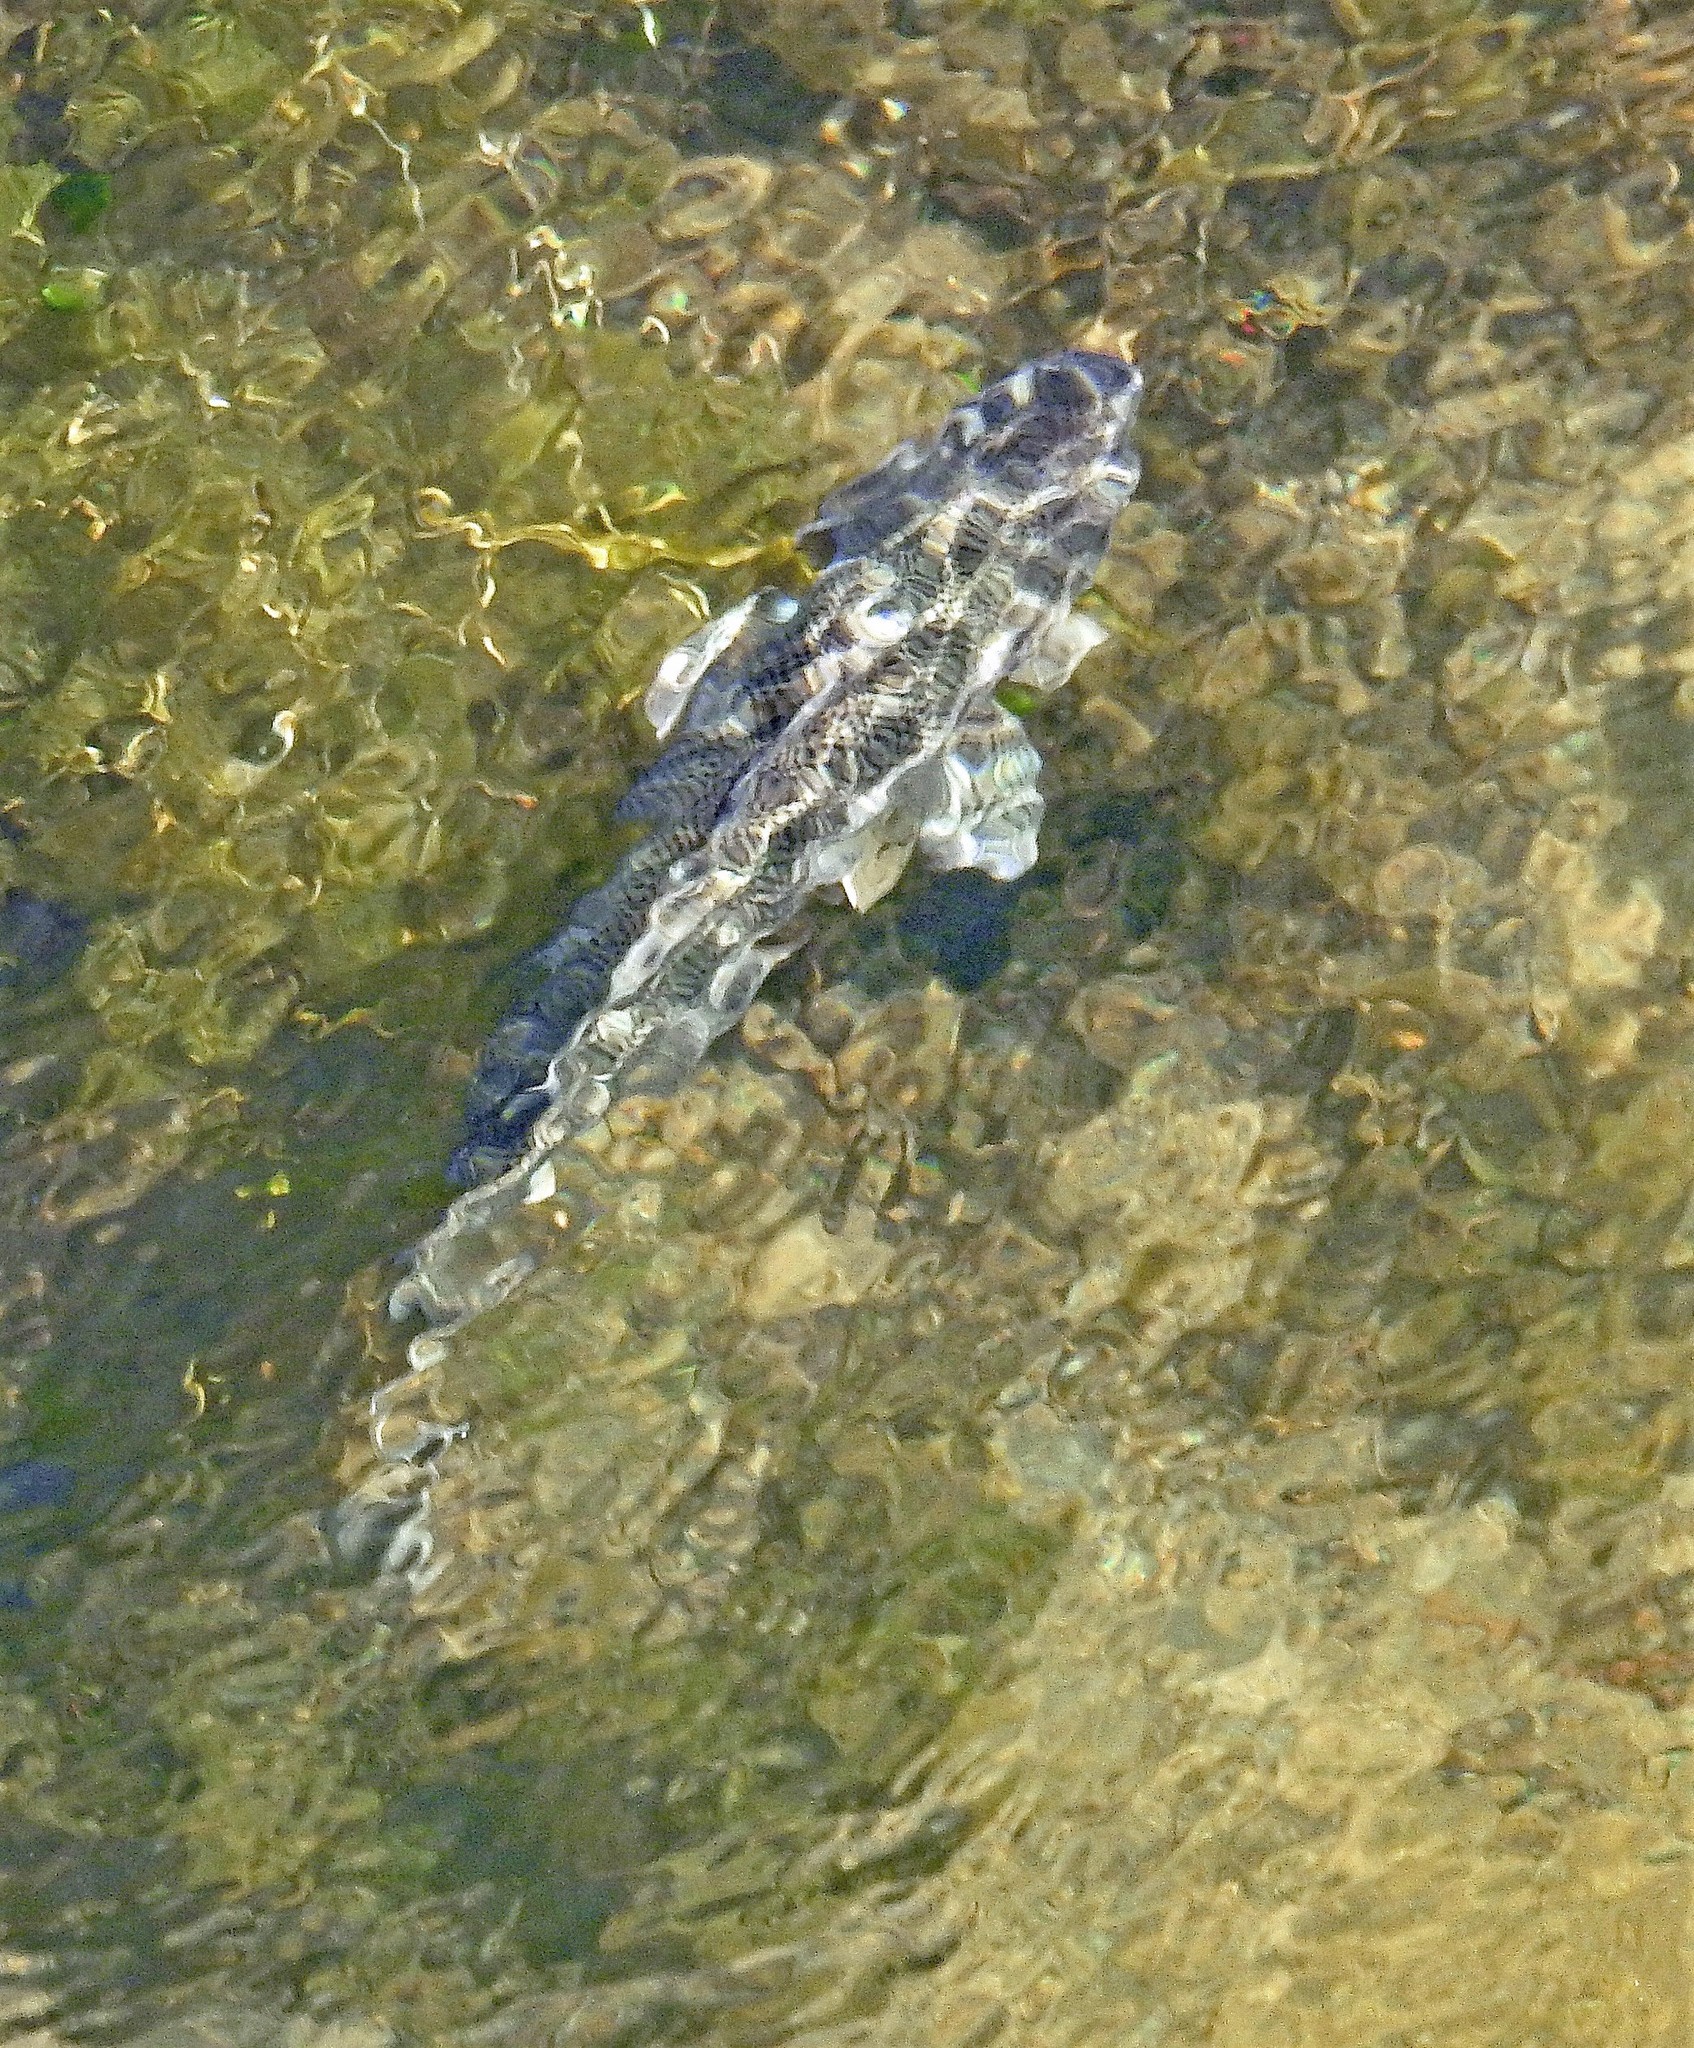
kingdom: Animalia
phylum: Chordata
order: Perciformes
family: Percichthyidae
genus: Percichthys
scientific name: Percichthys trucha
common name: Creole perch
